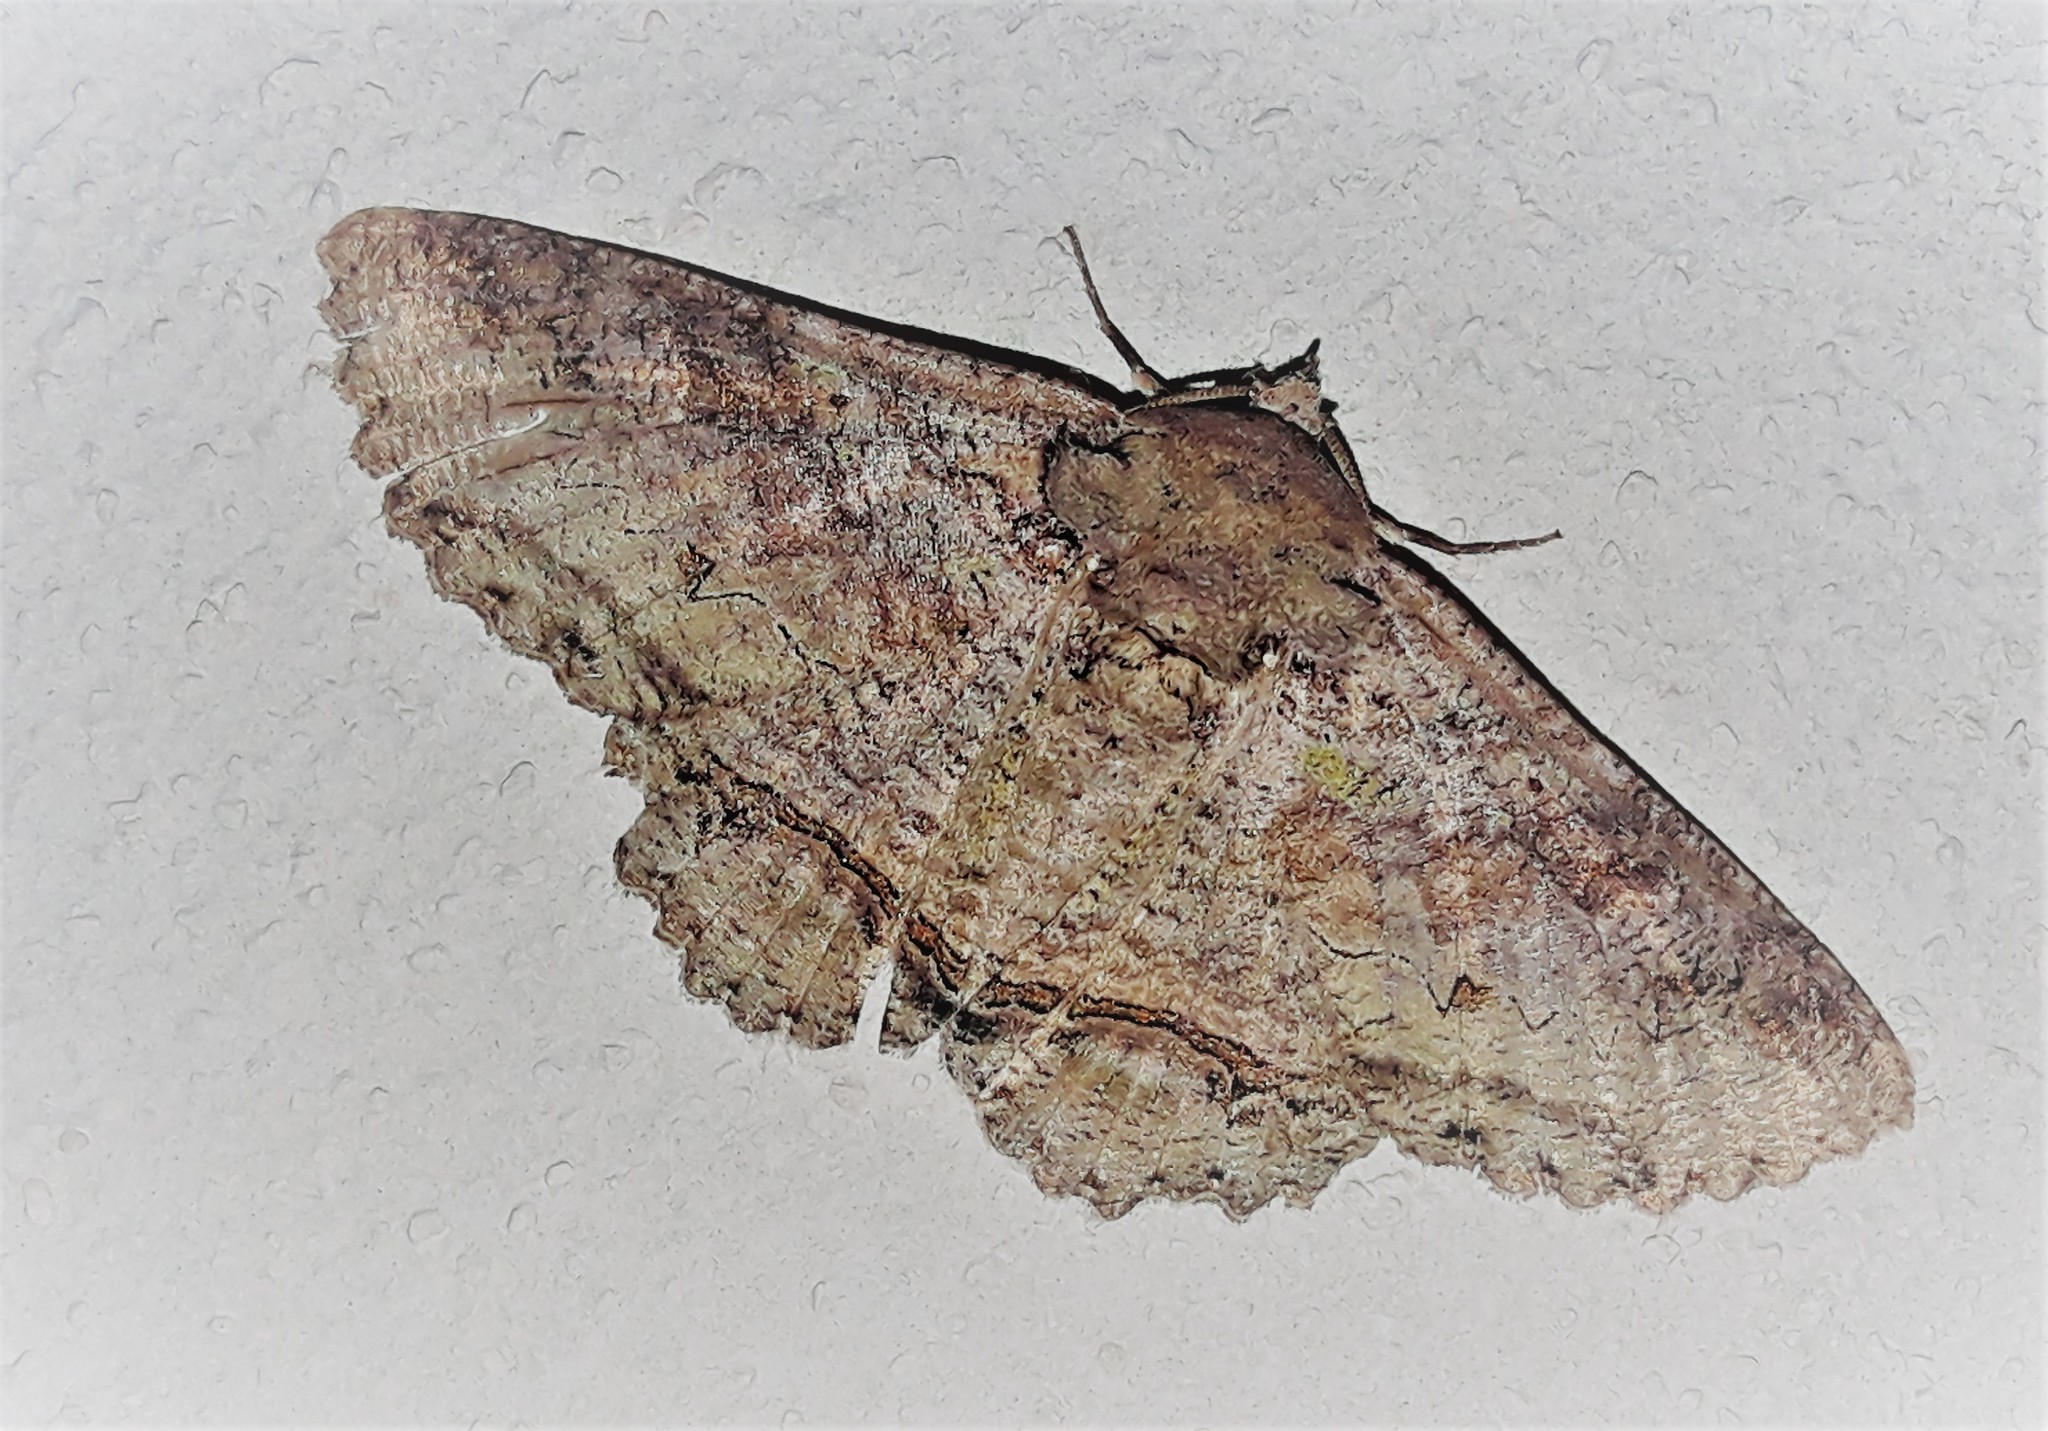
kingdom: Animalia
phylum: Arthropoda
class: Insecta
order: Lepidoptera
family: Erebidae
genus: Zale
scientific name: Zale fictilis
